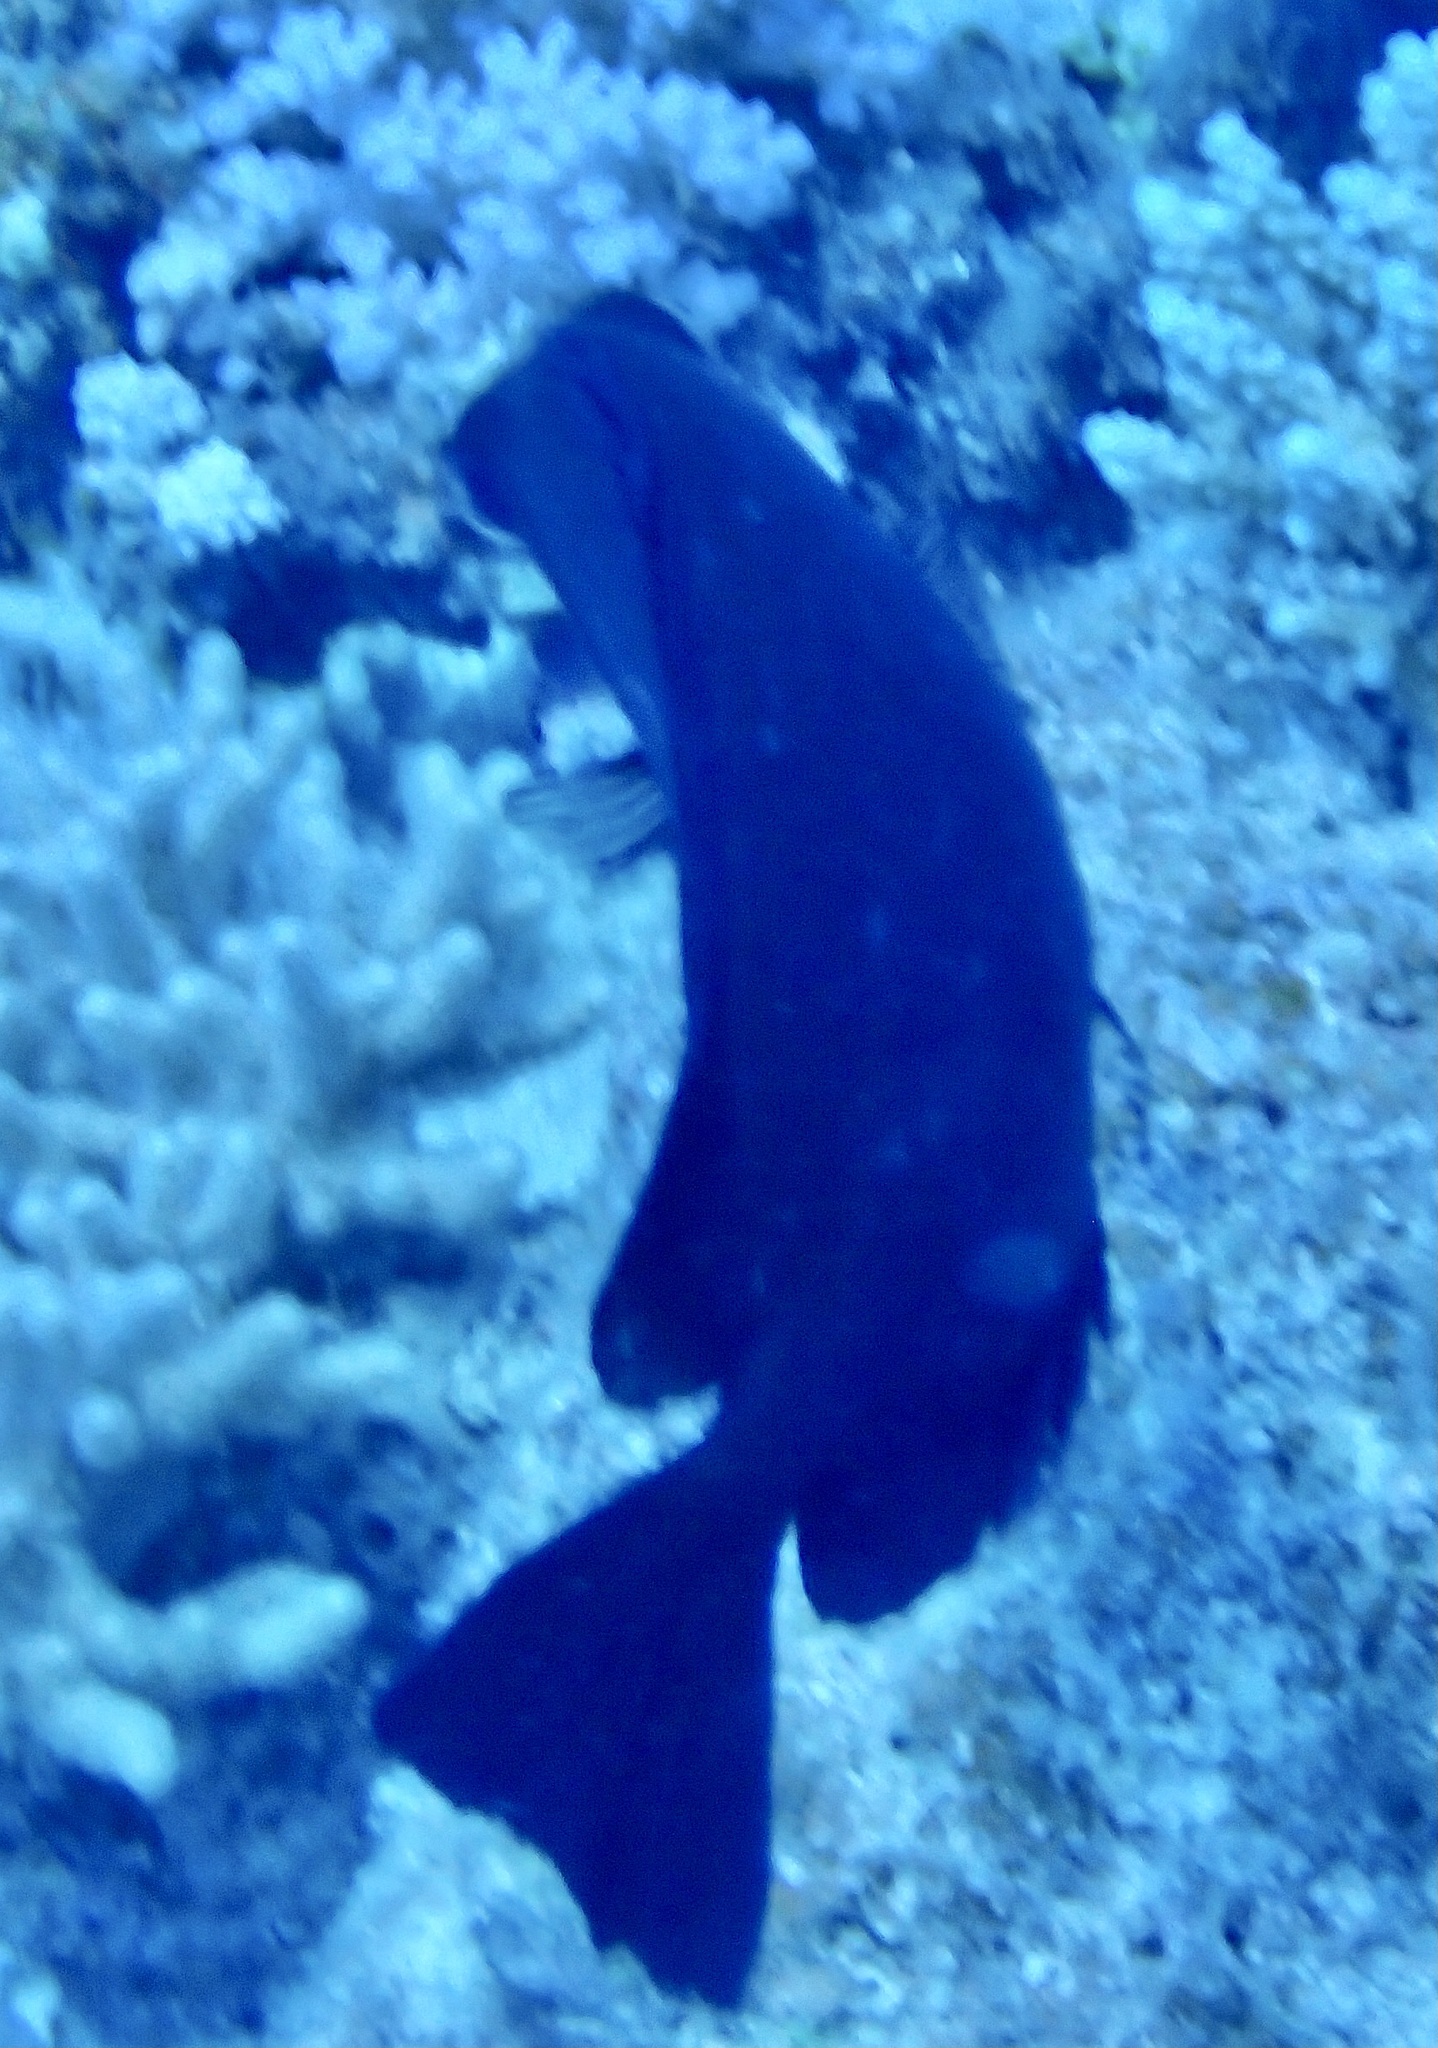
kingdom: Animalia
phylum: Chordata
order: Perciformes
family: Siganidae
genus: Siganus
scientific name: Siganus luridus
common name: Dusky spinefoot
